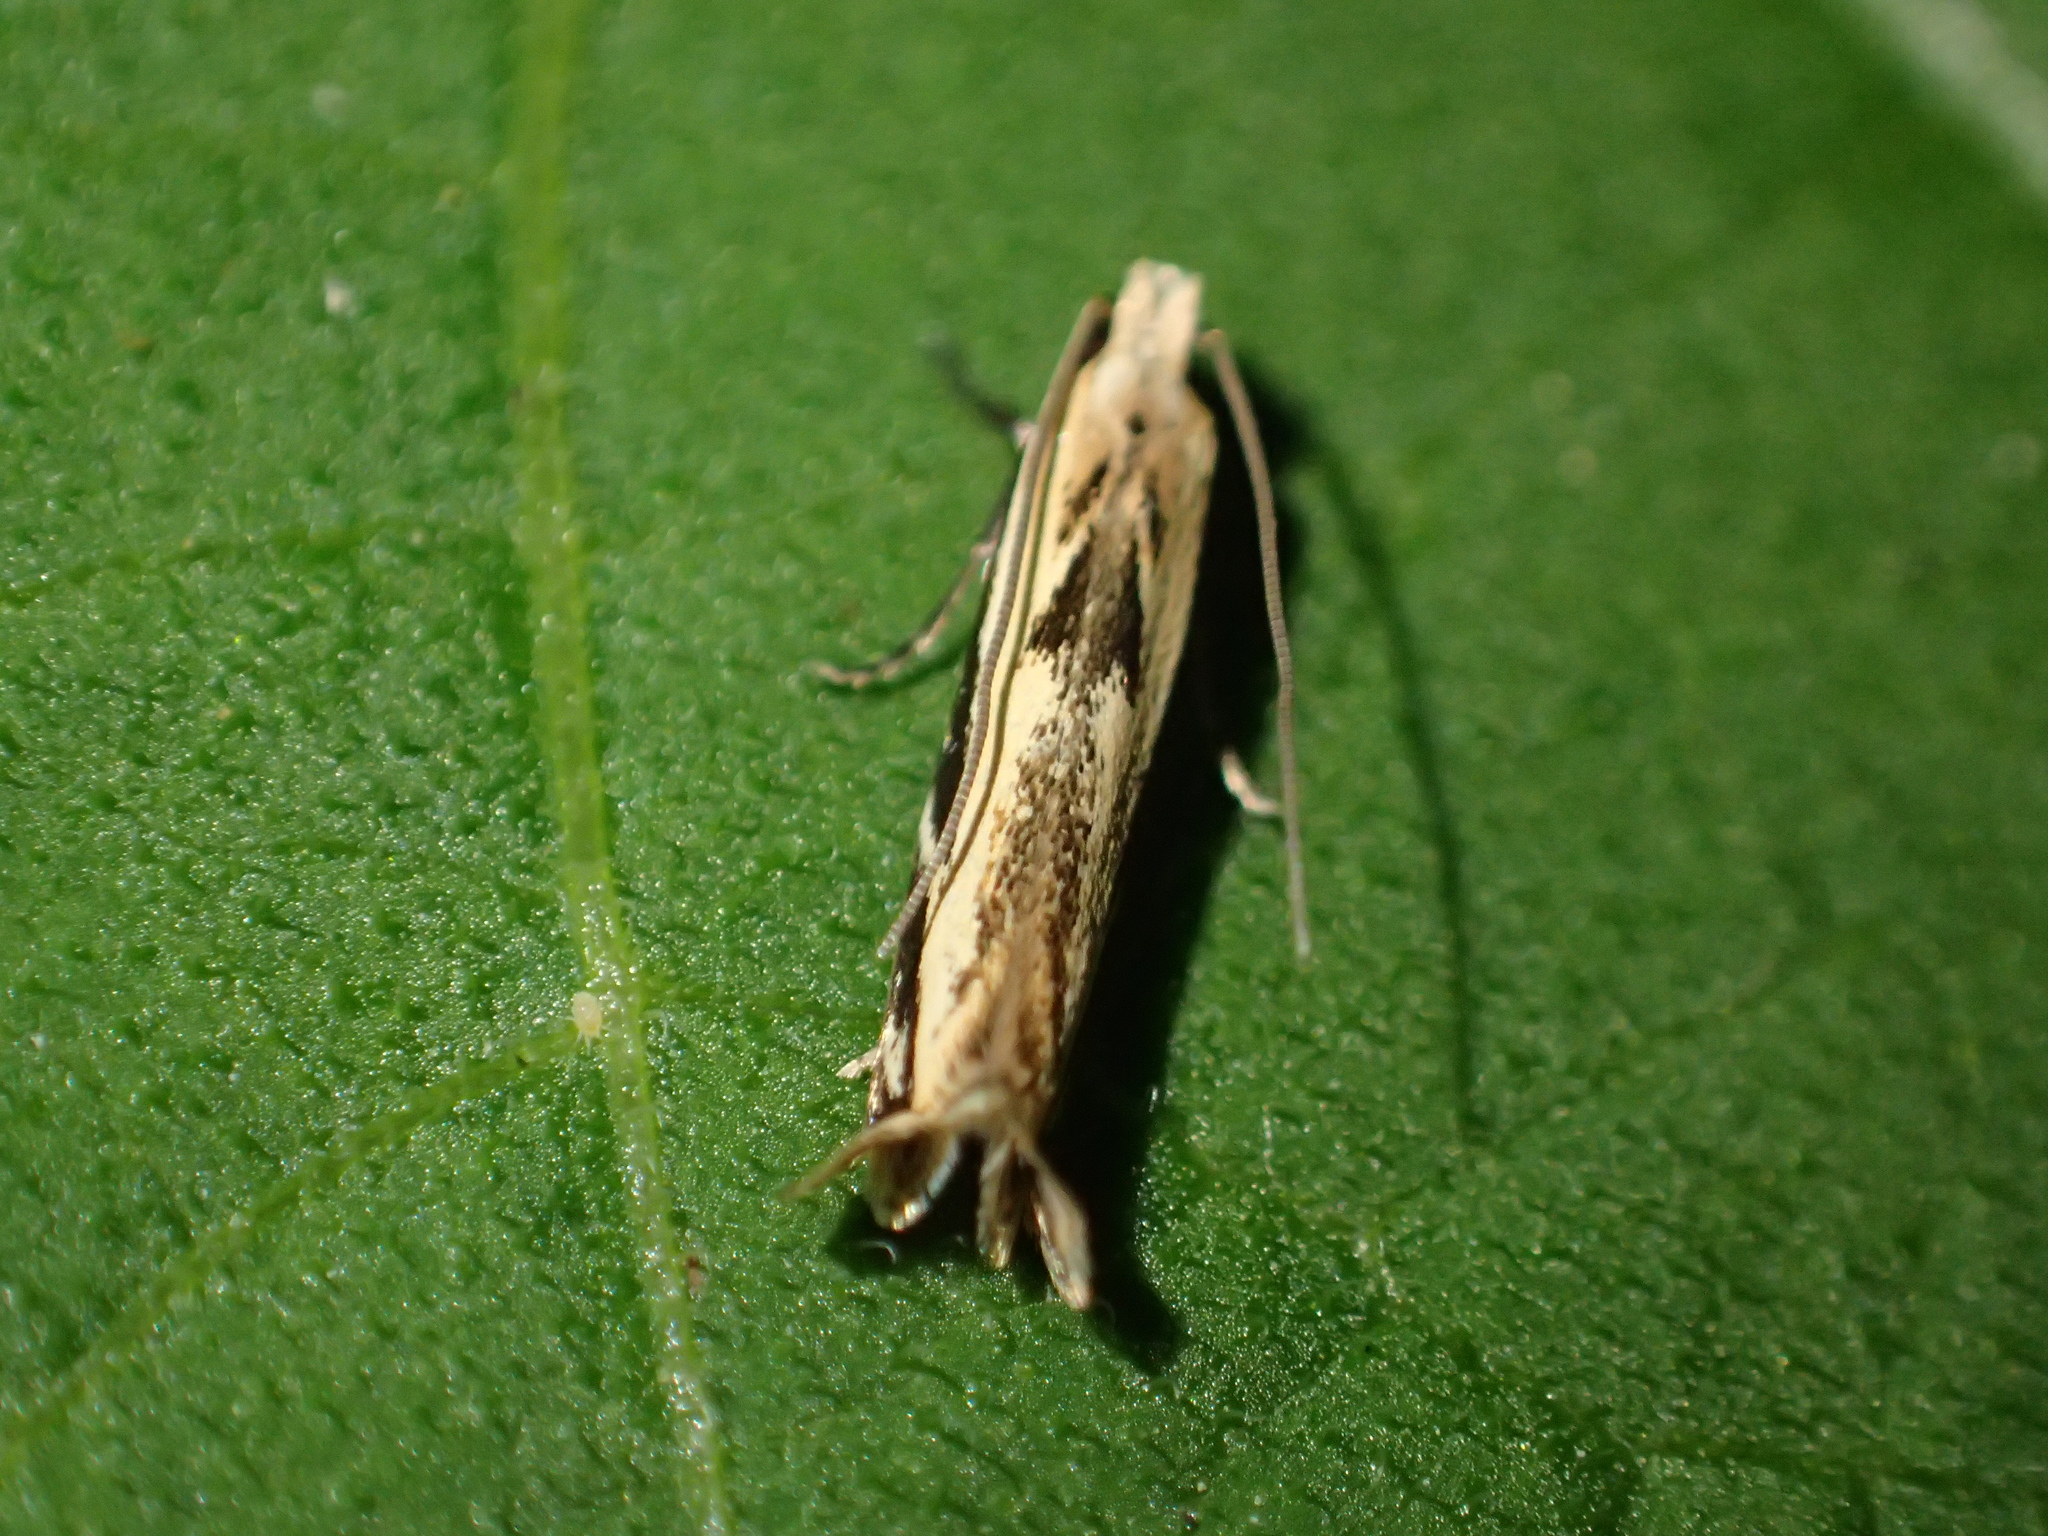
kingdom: Animalia
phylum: Arthropoda
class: Insecta
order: Lepidoptera
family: Tineidae
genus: Erechthias
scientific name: Erechthias terminella
